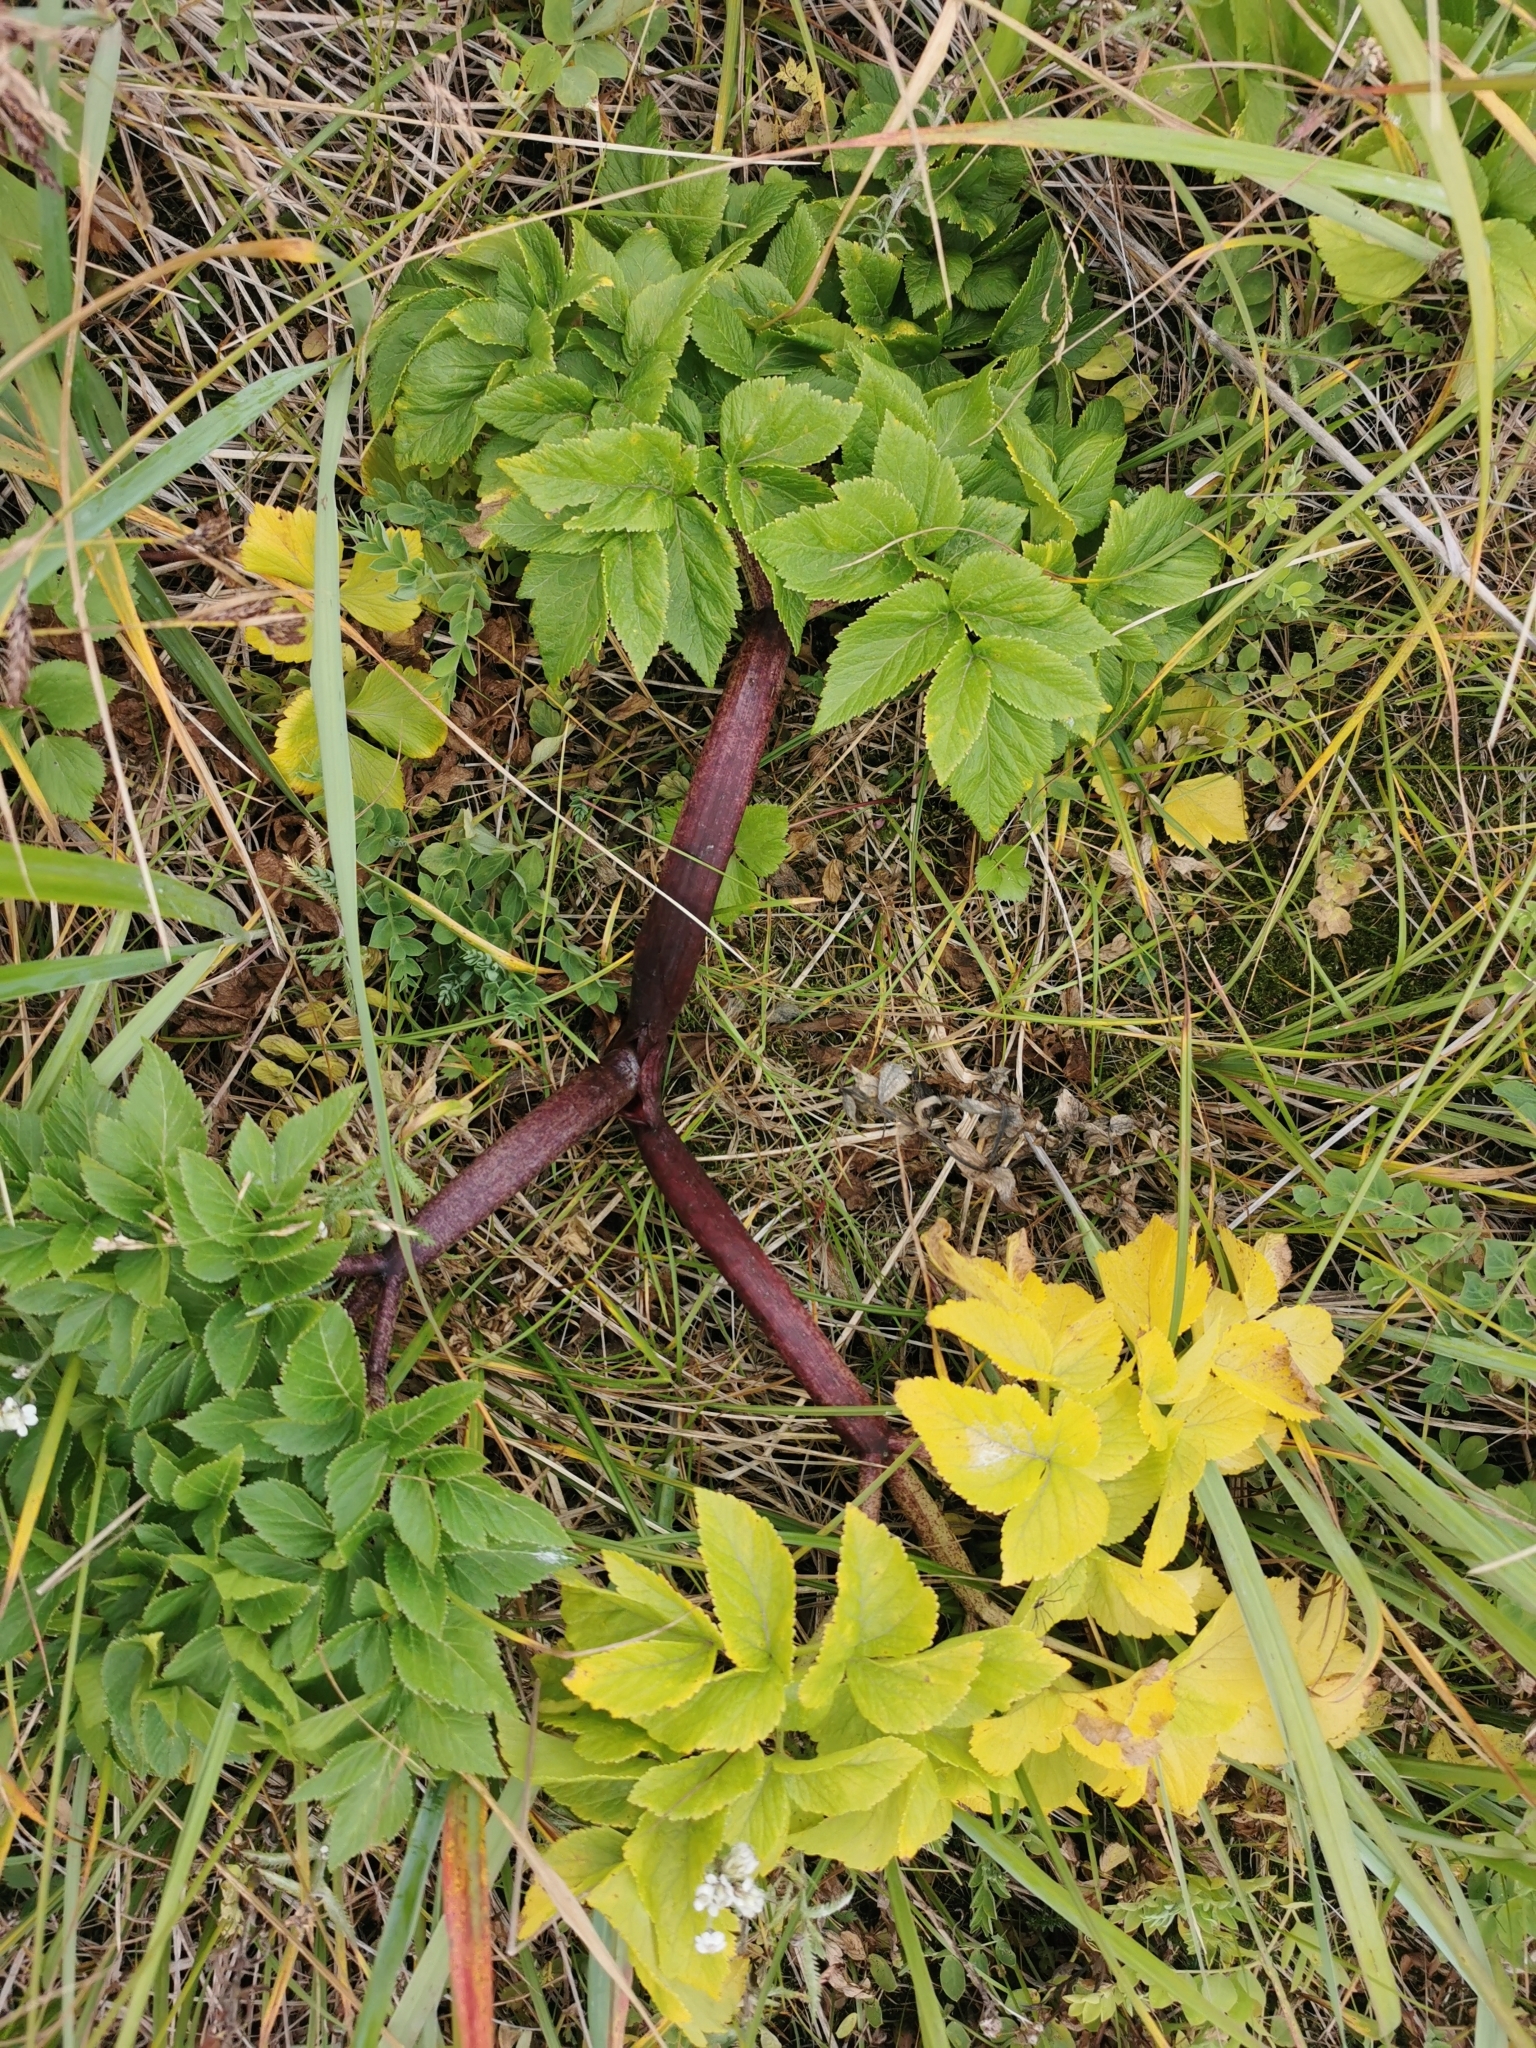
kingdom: Plantae
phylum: Tracheophyta
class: Magnoliopsida
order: Apiales
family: Apiaceae
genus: Angelica
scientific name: Angelica gmelinii
